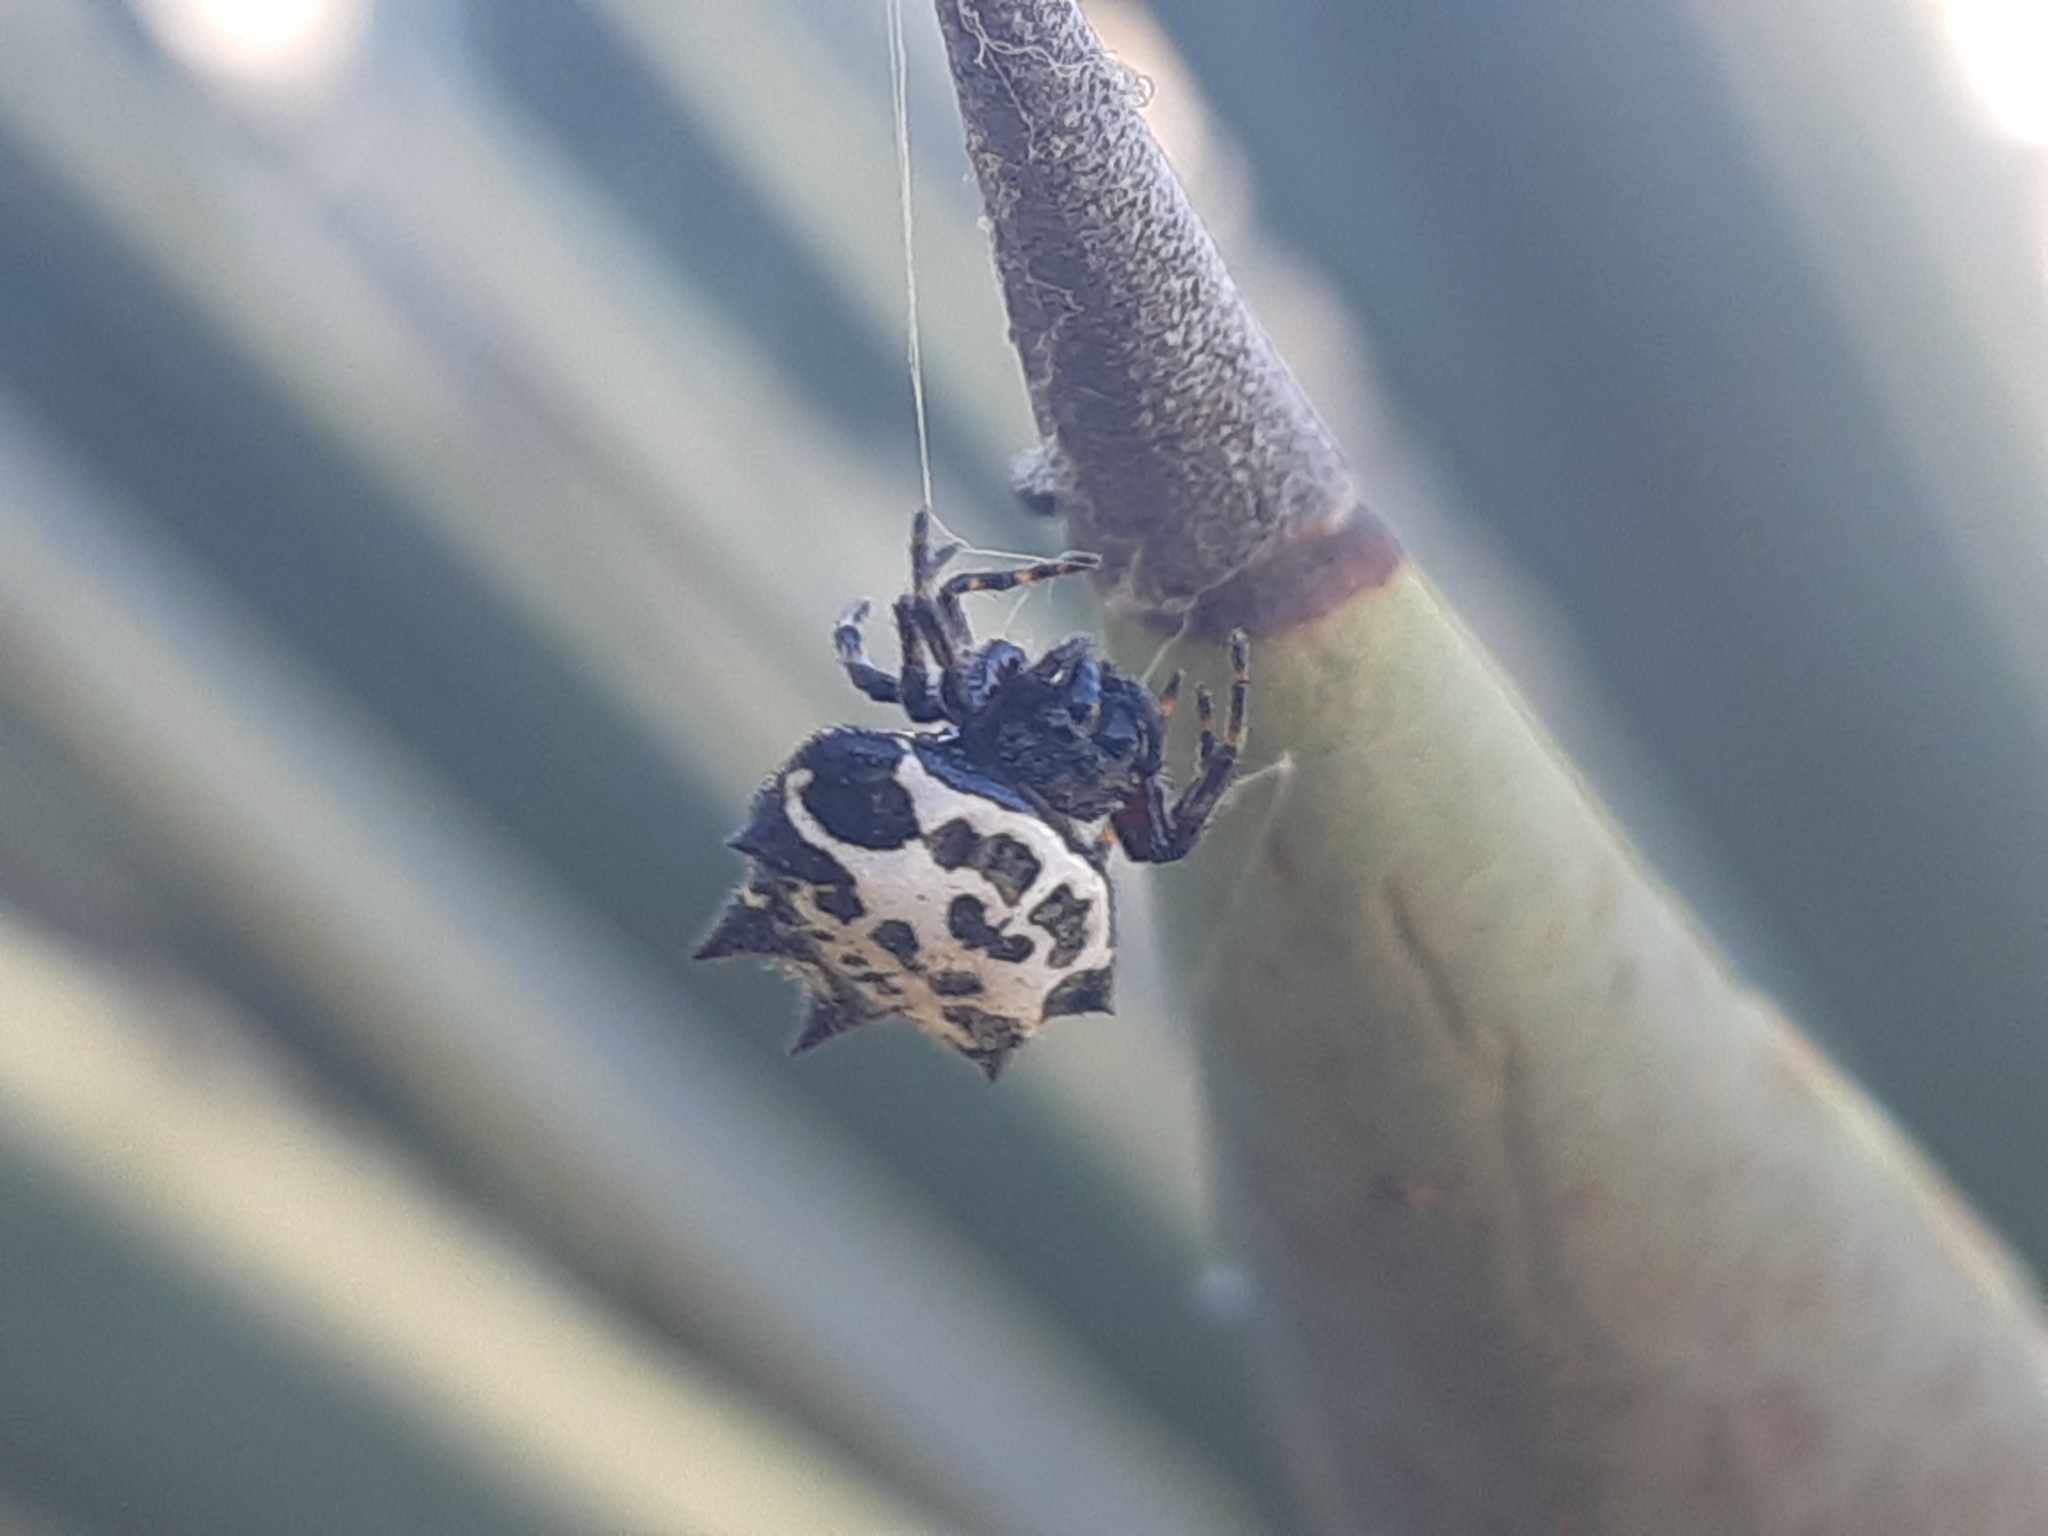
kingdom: Animalia
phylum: Arthropoda
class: Arachnida
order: Araneae
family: Araneidae
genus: Gasteracantha
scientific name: Gasteracantha cancriformis
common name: Orb weavers
